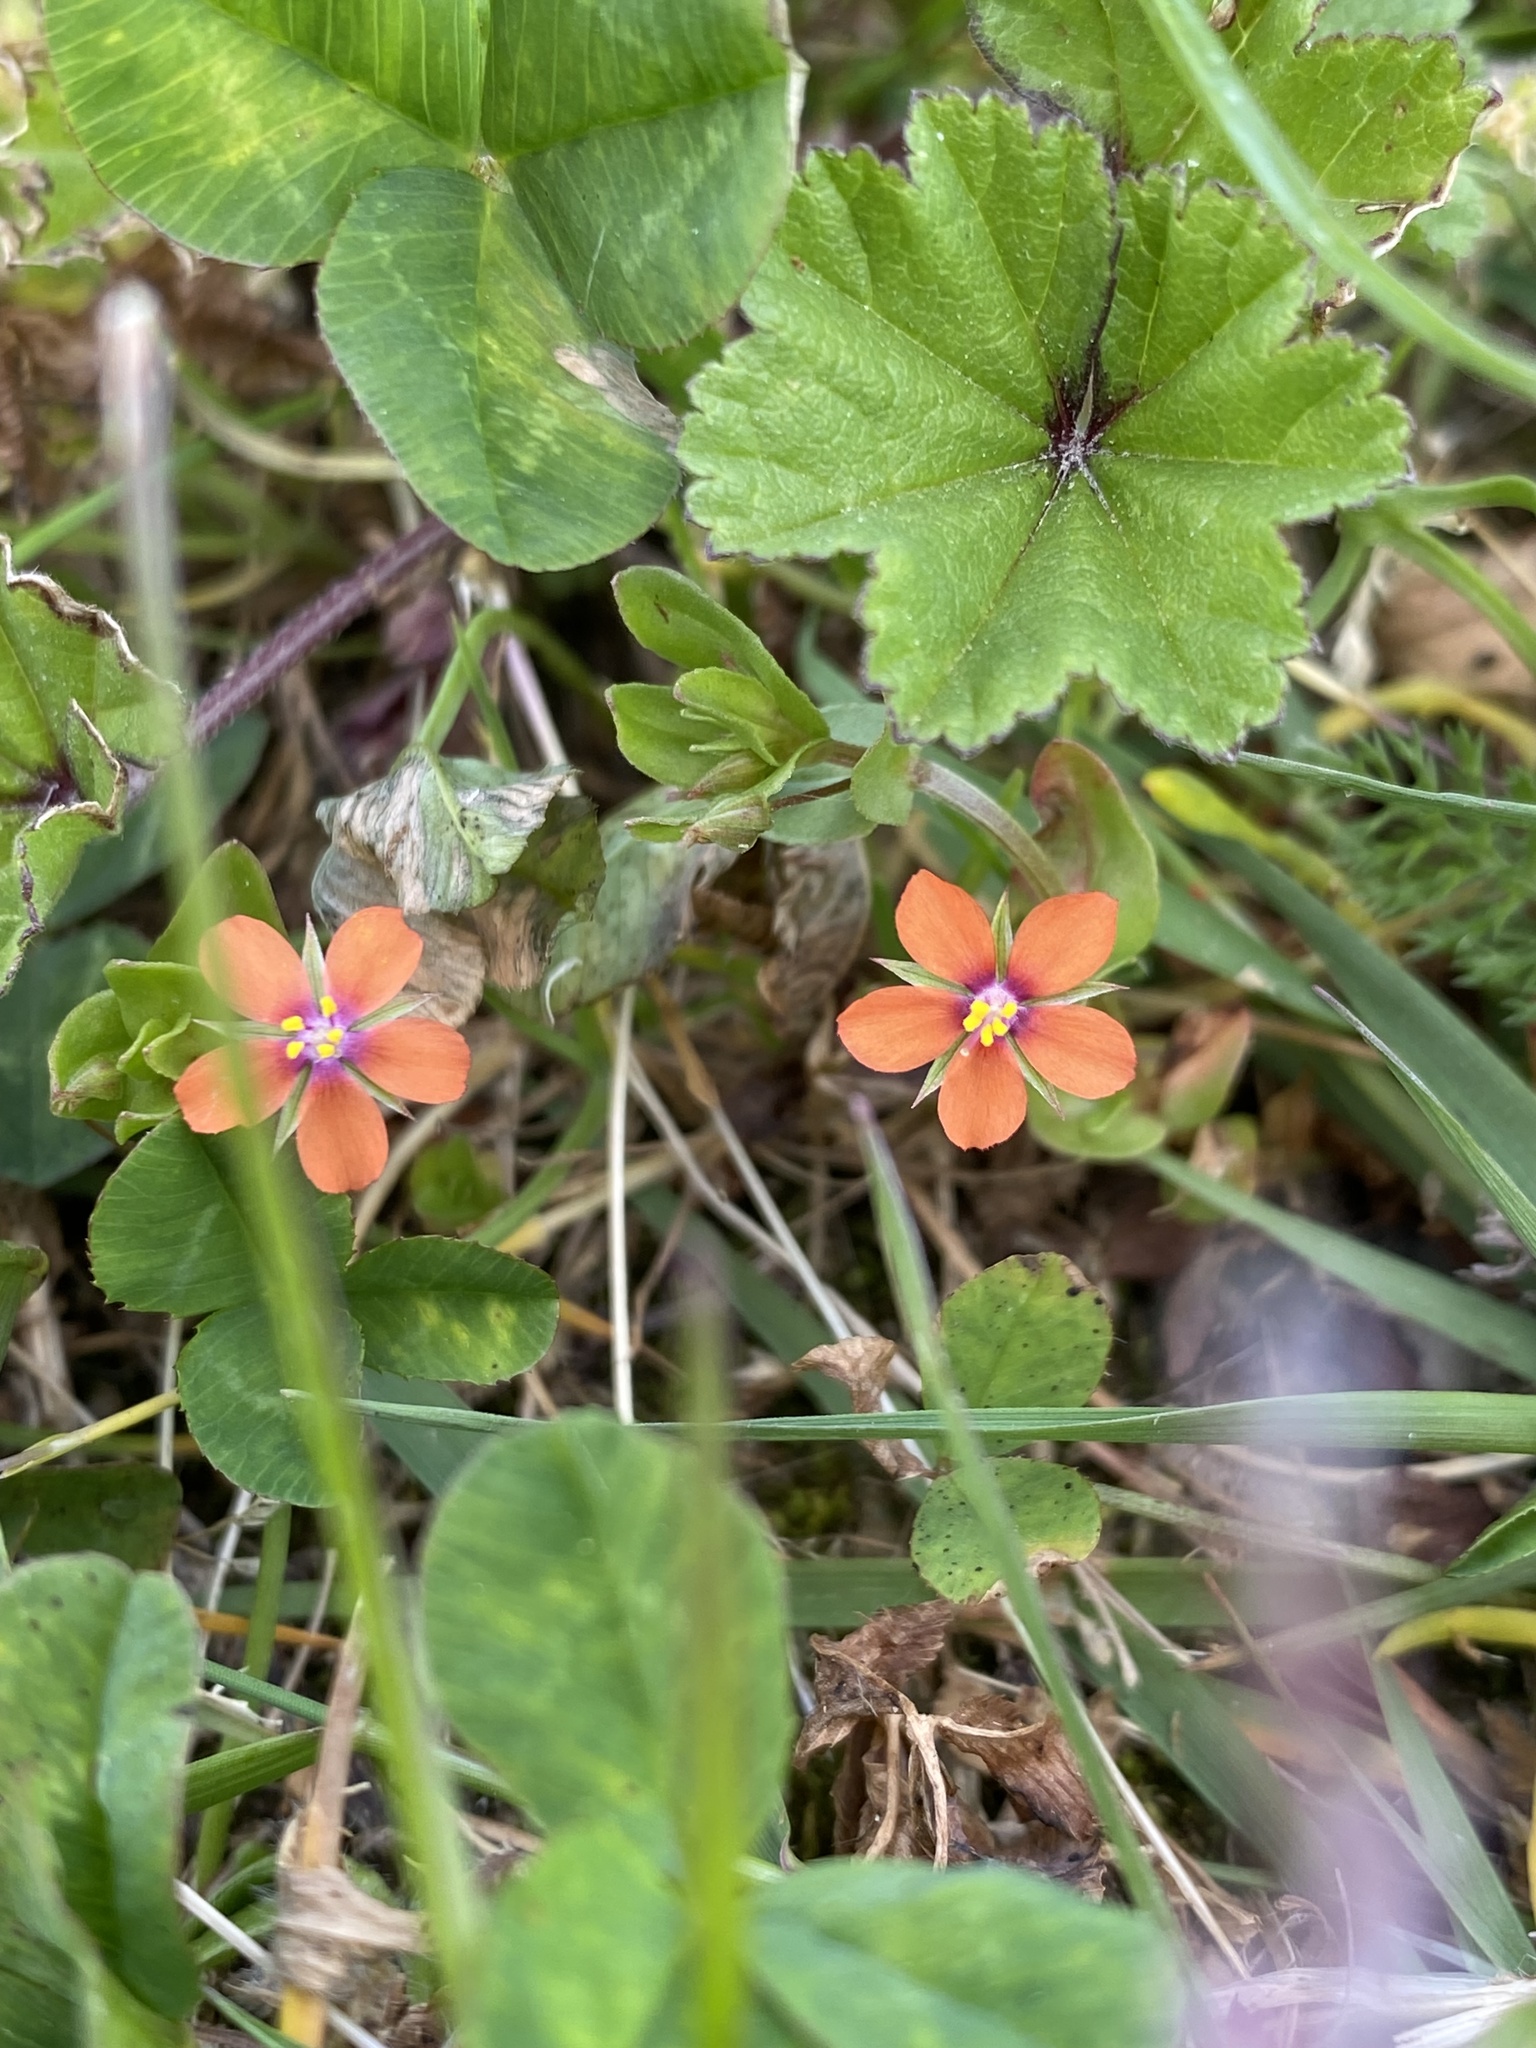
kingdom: Plantae
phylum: Tracheophyta
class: Magnoliopsida
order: Ericales
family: Primulaceae
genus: Lysimachia
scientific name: Lysimachia arvensis
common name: Scarlet pimpernel
